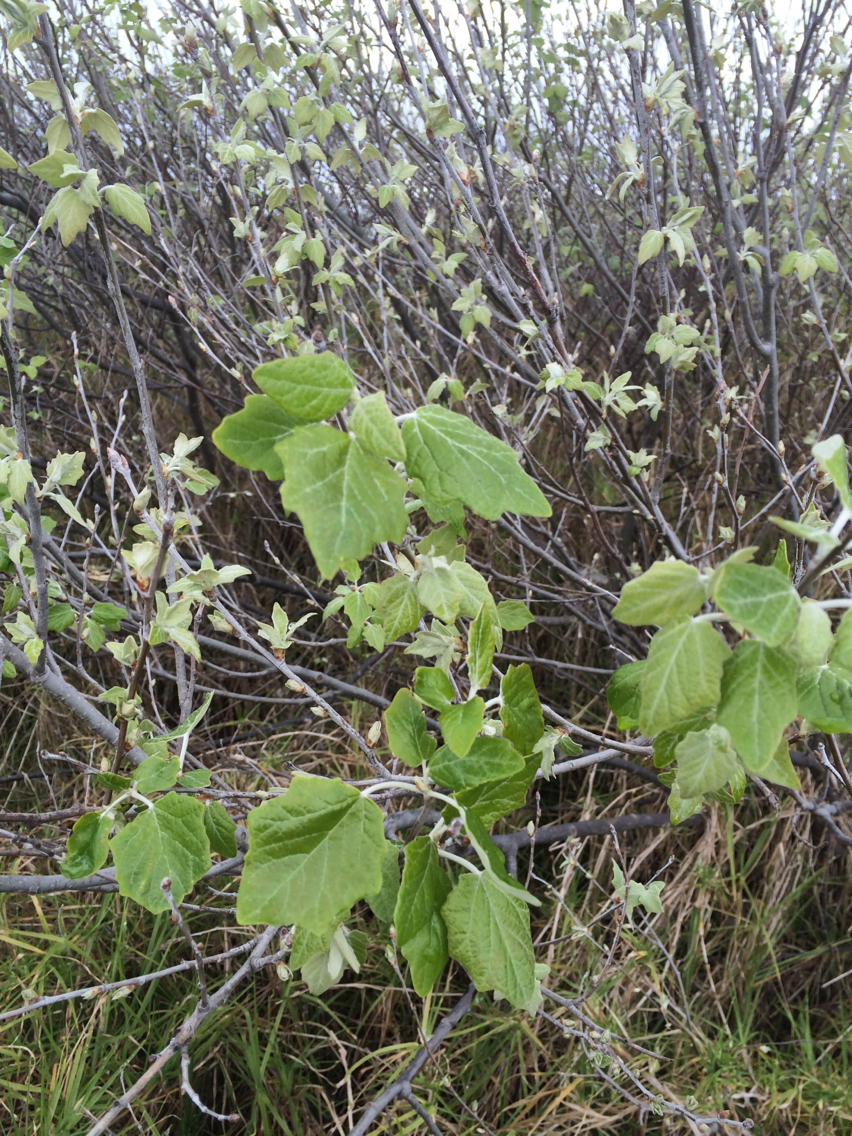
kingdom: Plantae
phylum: Tracheophyta
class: Magnoliopsida
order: Malpighiales
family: Salicaceae
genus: Populus
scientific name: Populus alba
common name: White poplar
